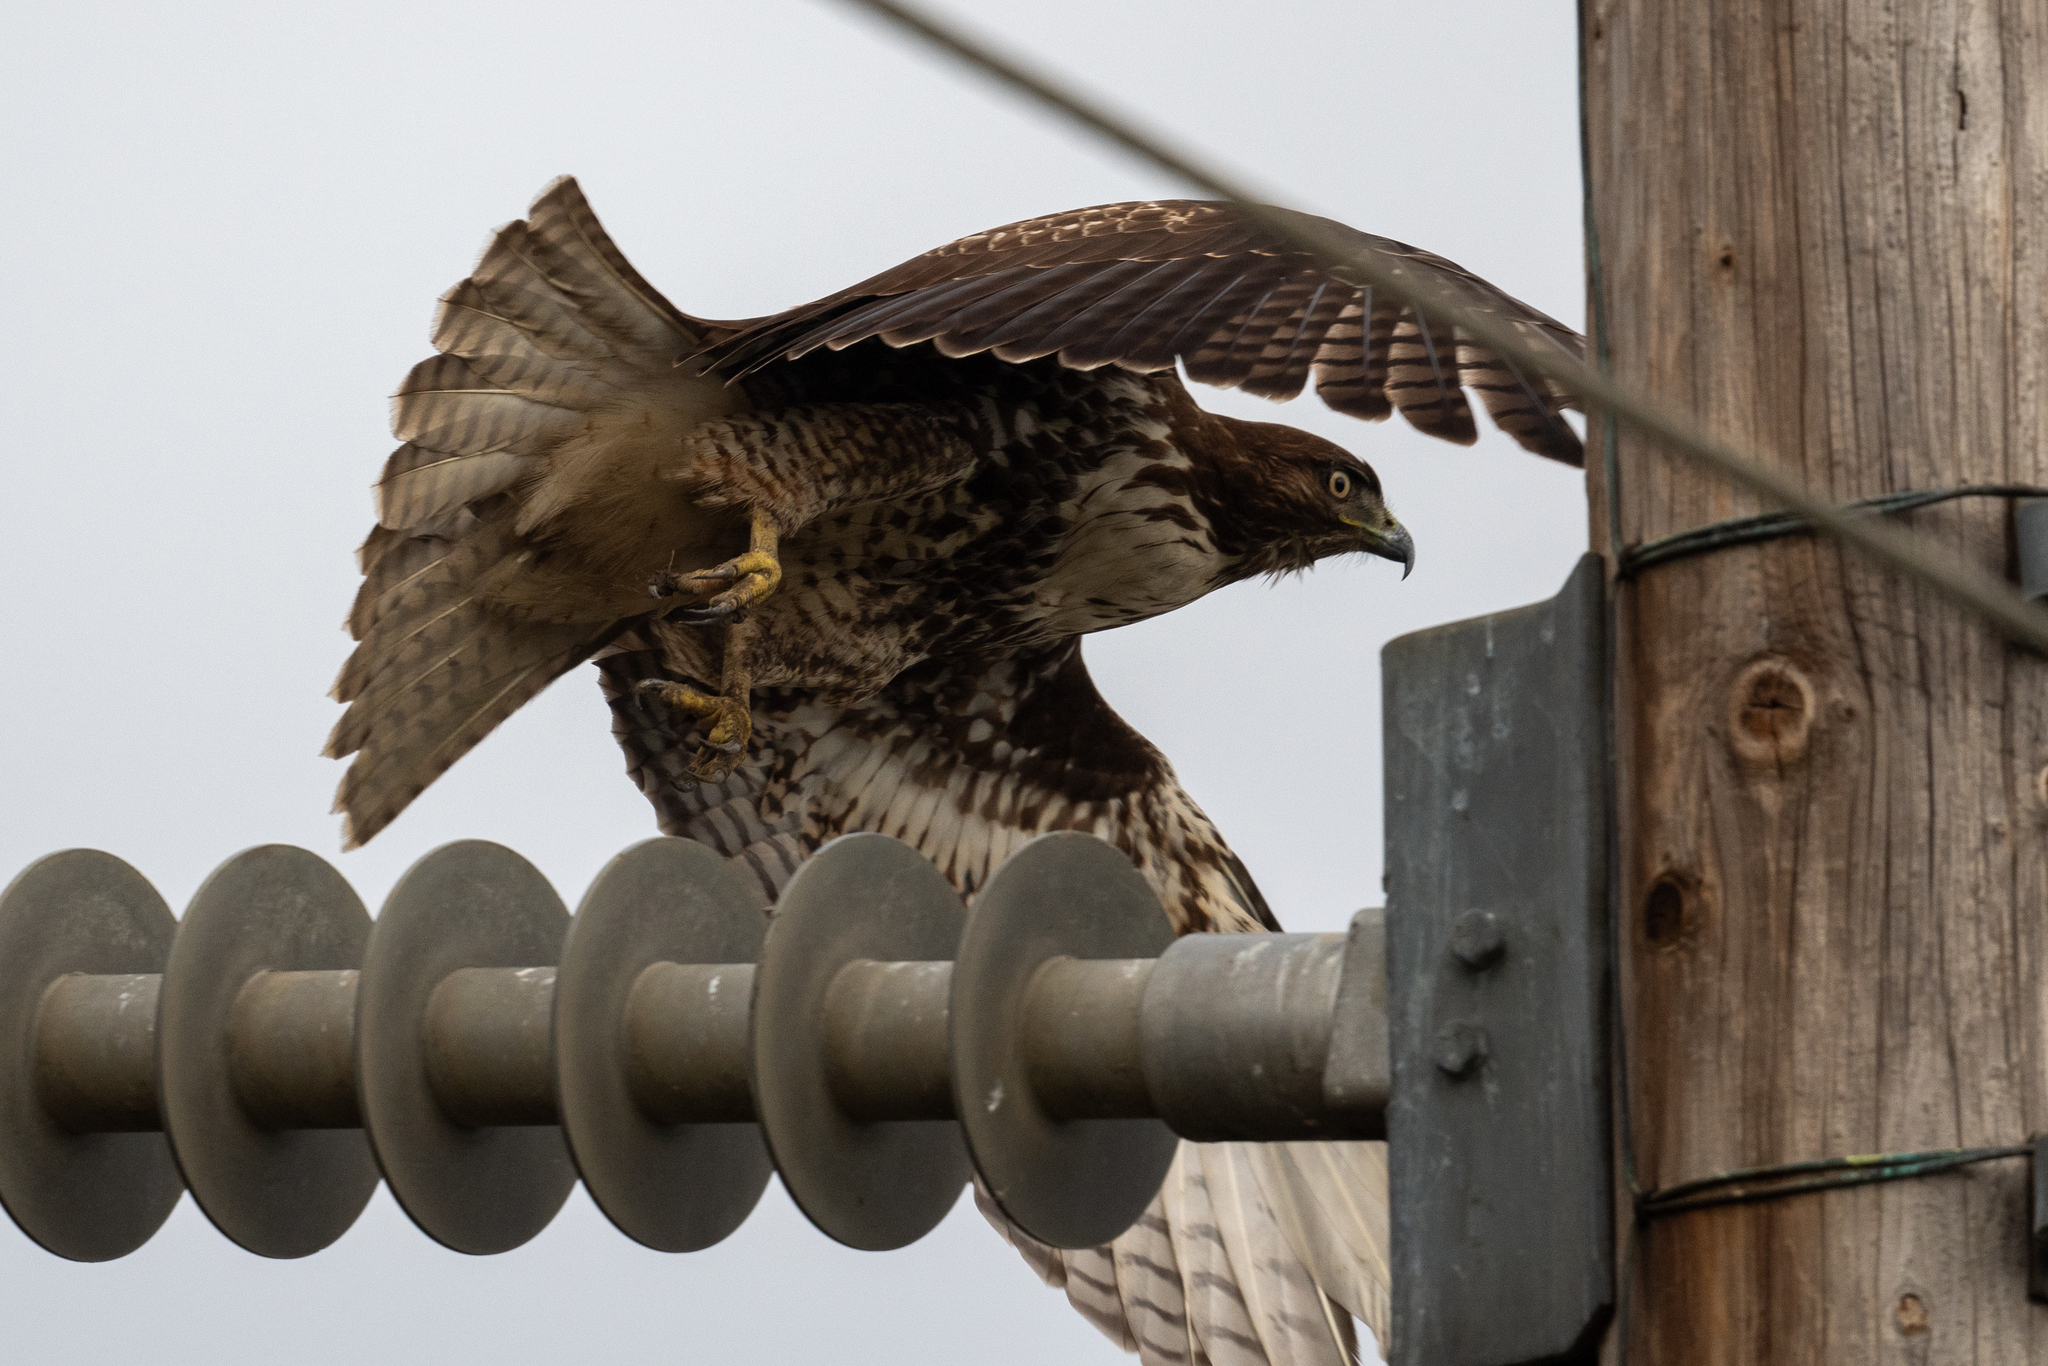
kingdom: Animalia
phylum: Chordata
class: Aves
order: Accipitriformes
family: Accipitridae
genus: Buteo
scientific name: Buteo jamaicensis
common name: Red-tailed hawk
